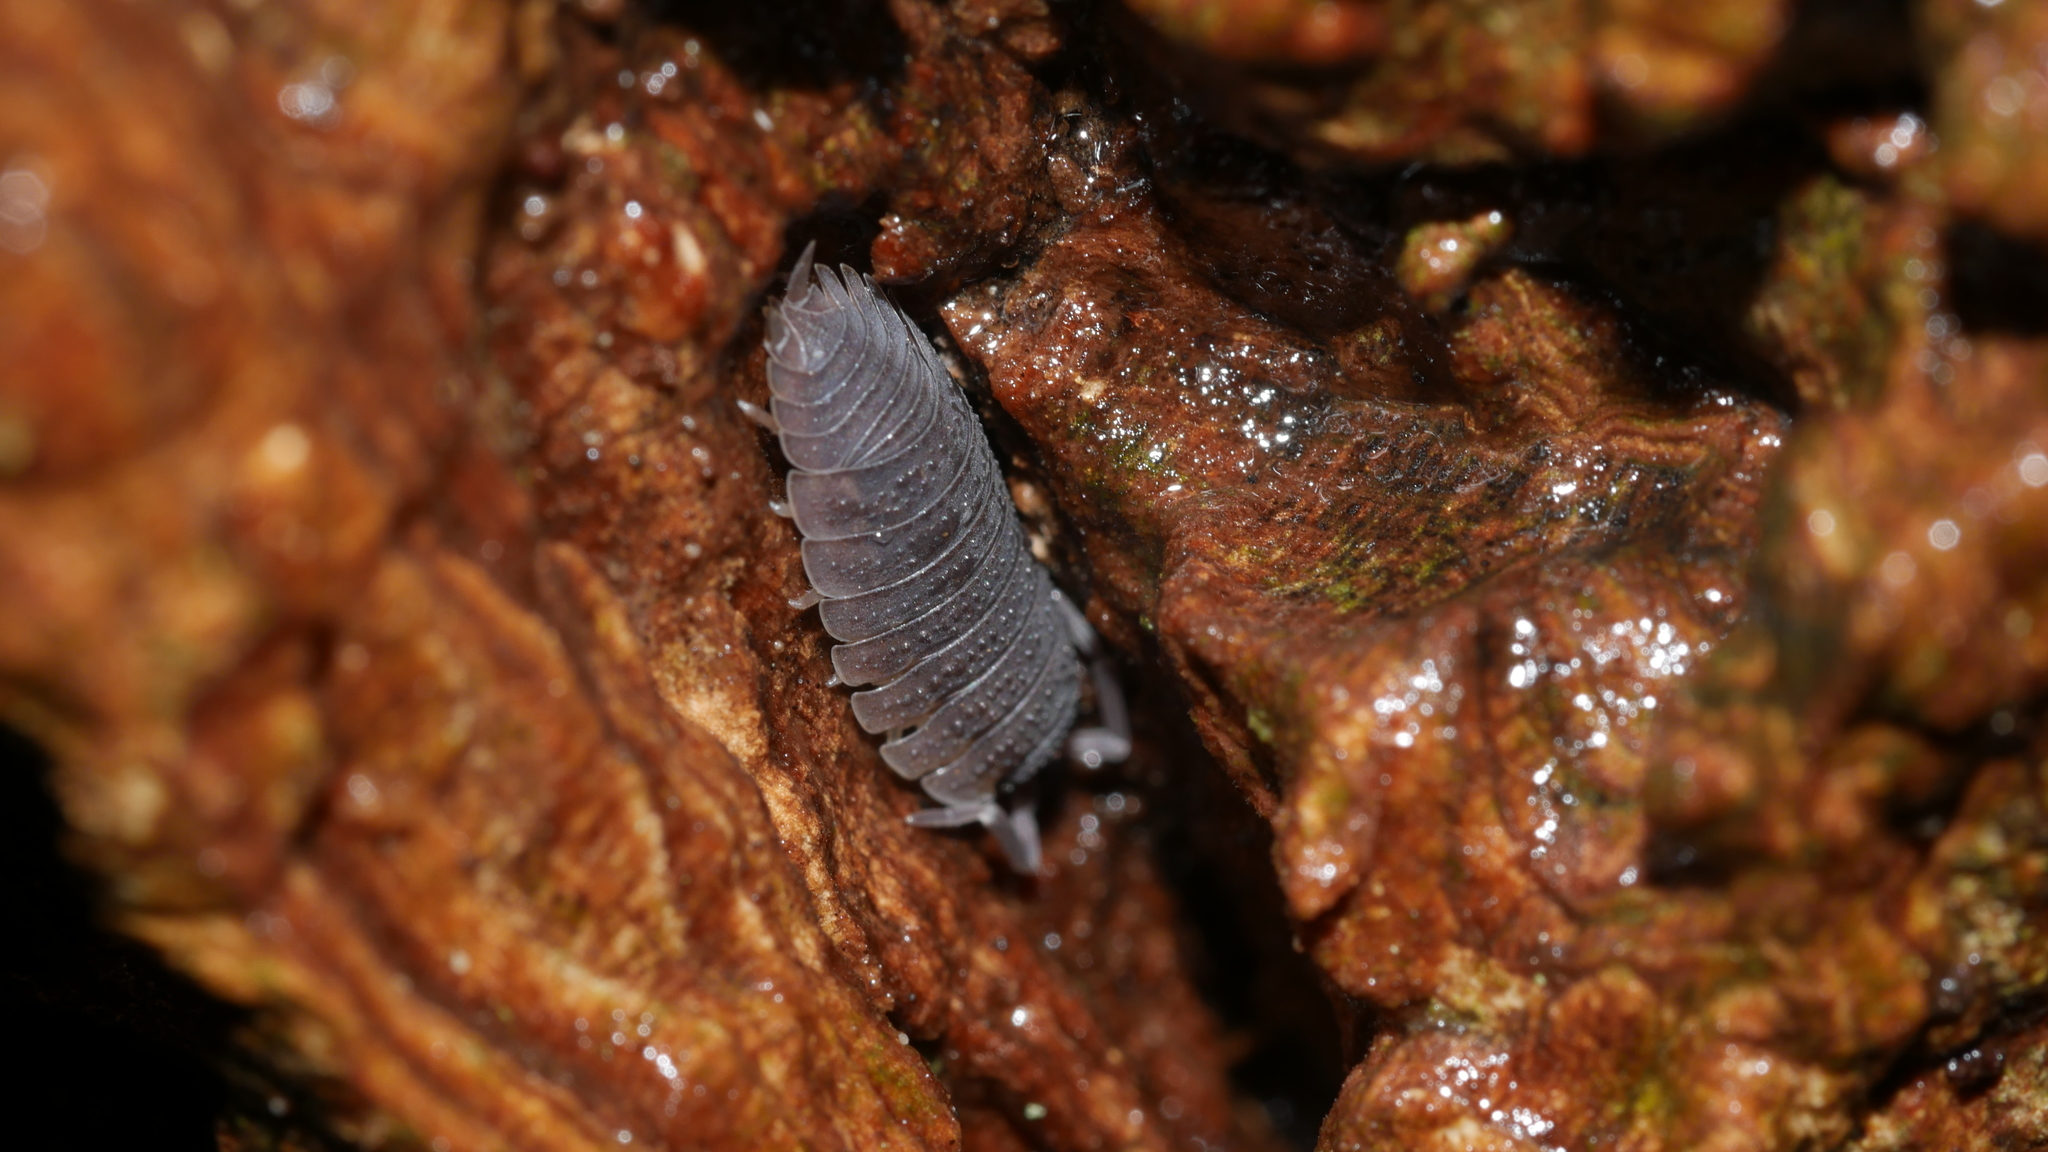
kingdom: Animalia
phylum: Arthropoda
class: Malacostraca
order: Isopoda
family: Porcellionidae
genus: Porcellio
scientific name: Porcellio scaber
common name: Common rough woodlouse
